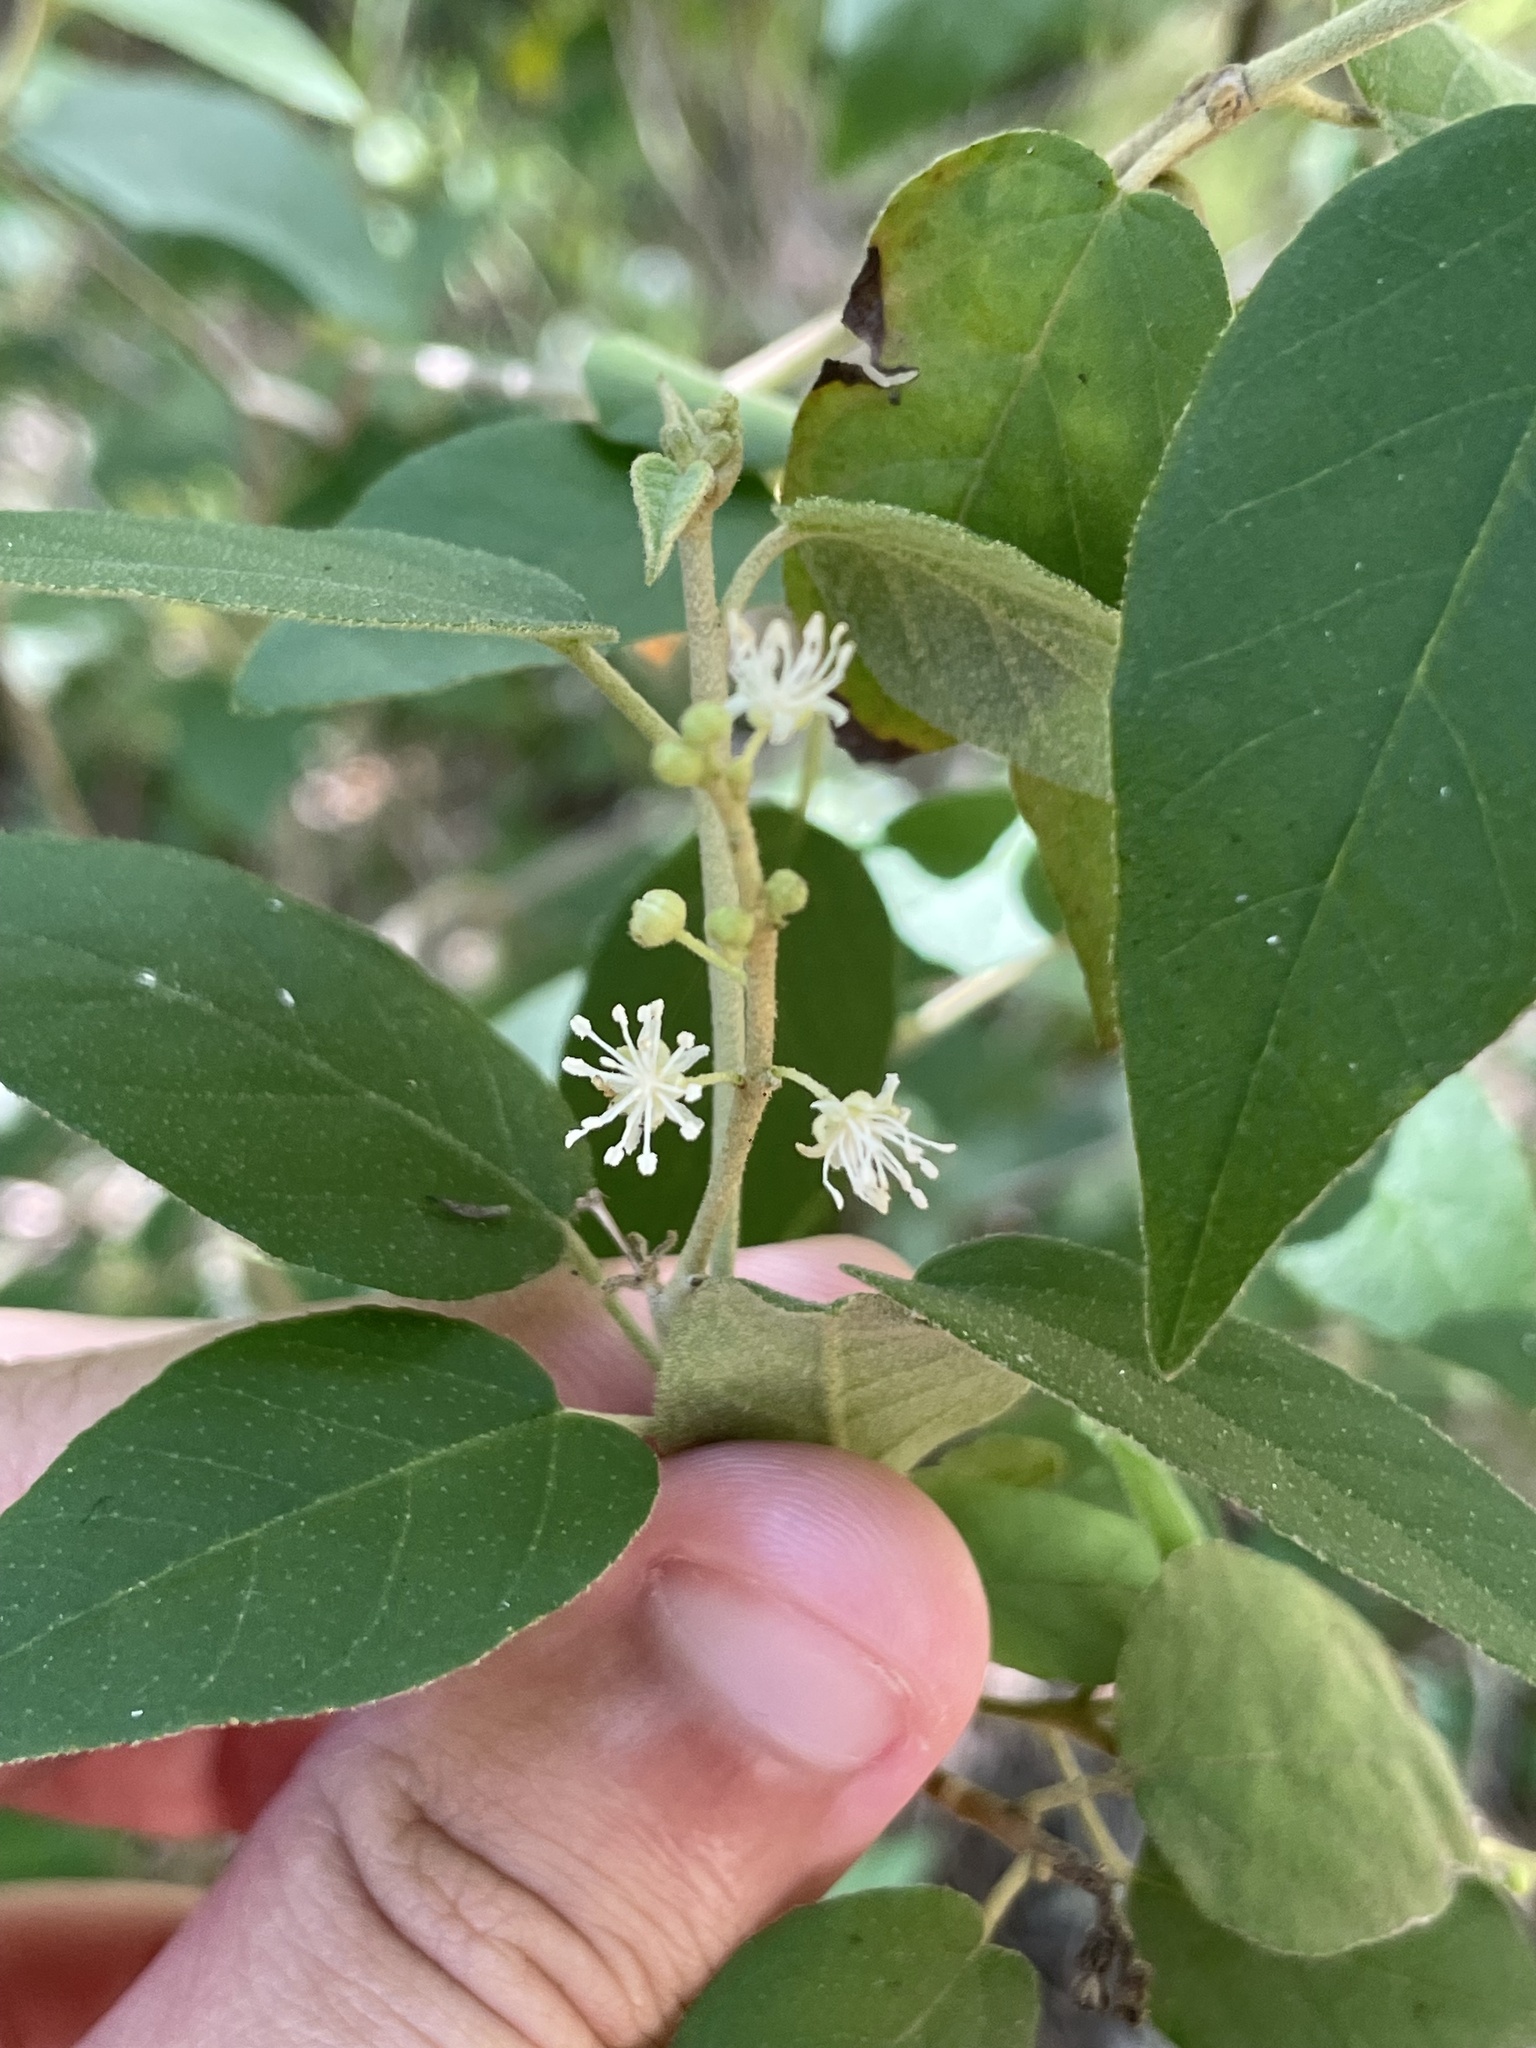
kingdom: Plantae
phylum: Tracheophyta
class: Magnoliopsida
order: Malpighiales
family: Euphorbiaceae
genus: Croton
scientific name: Croton fruticulosus
